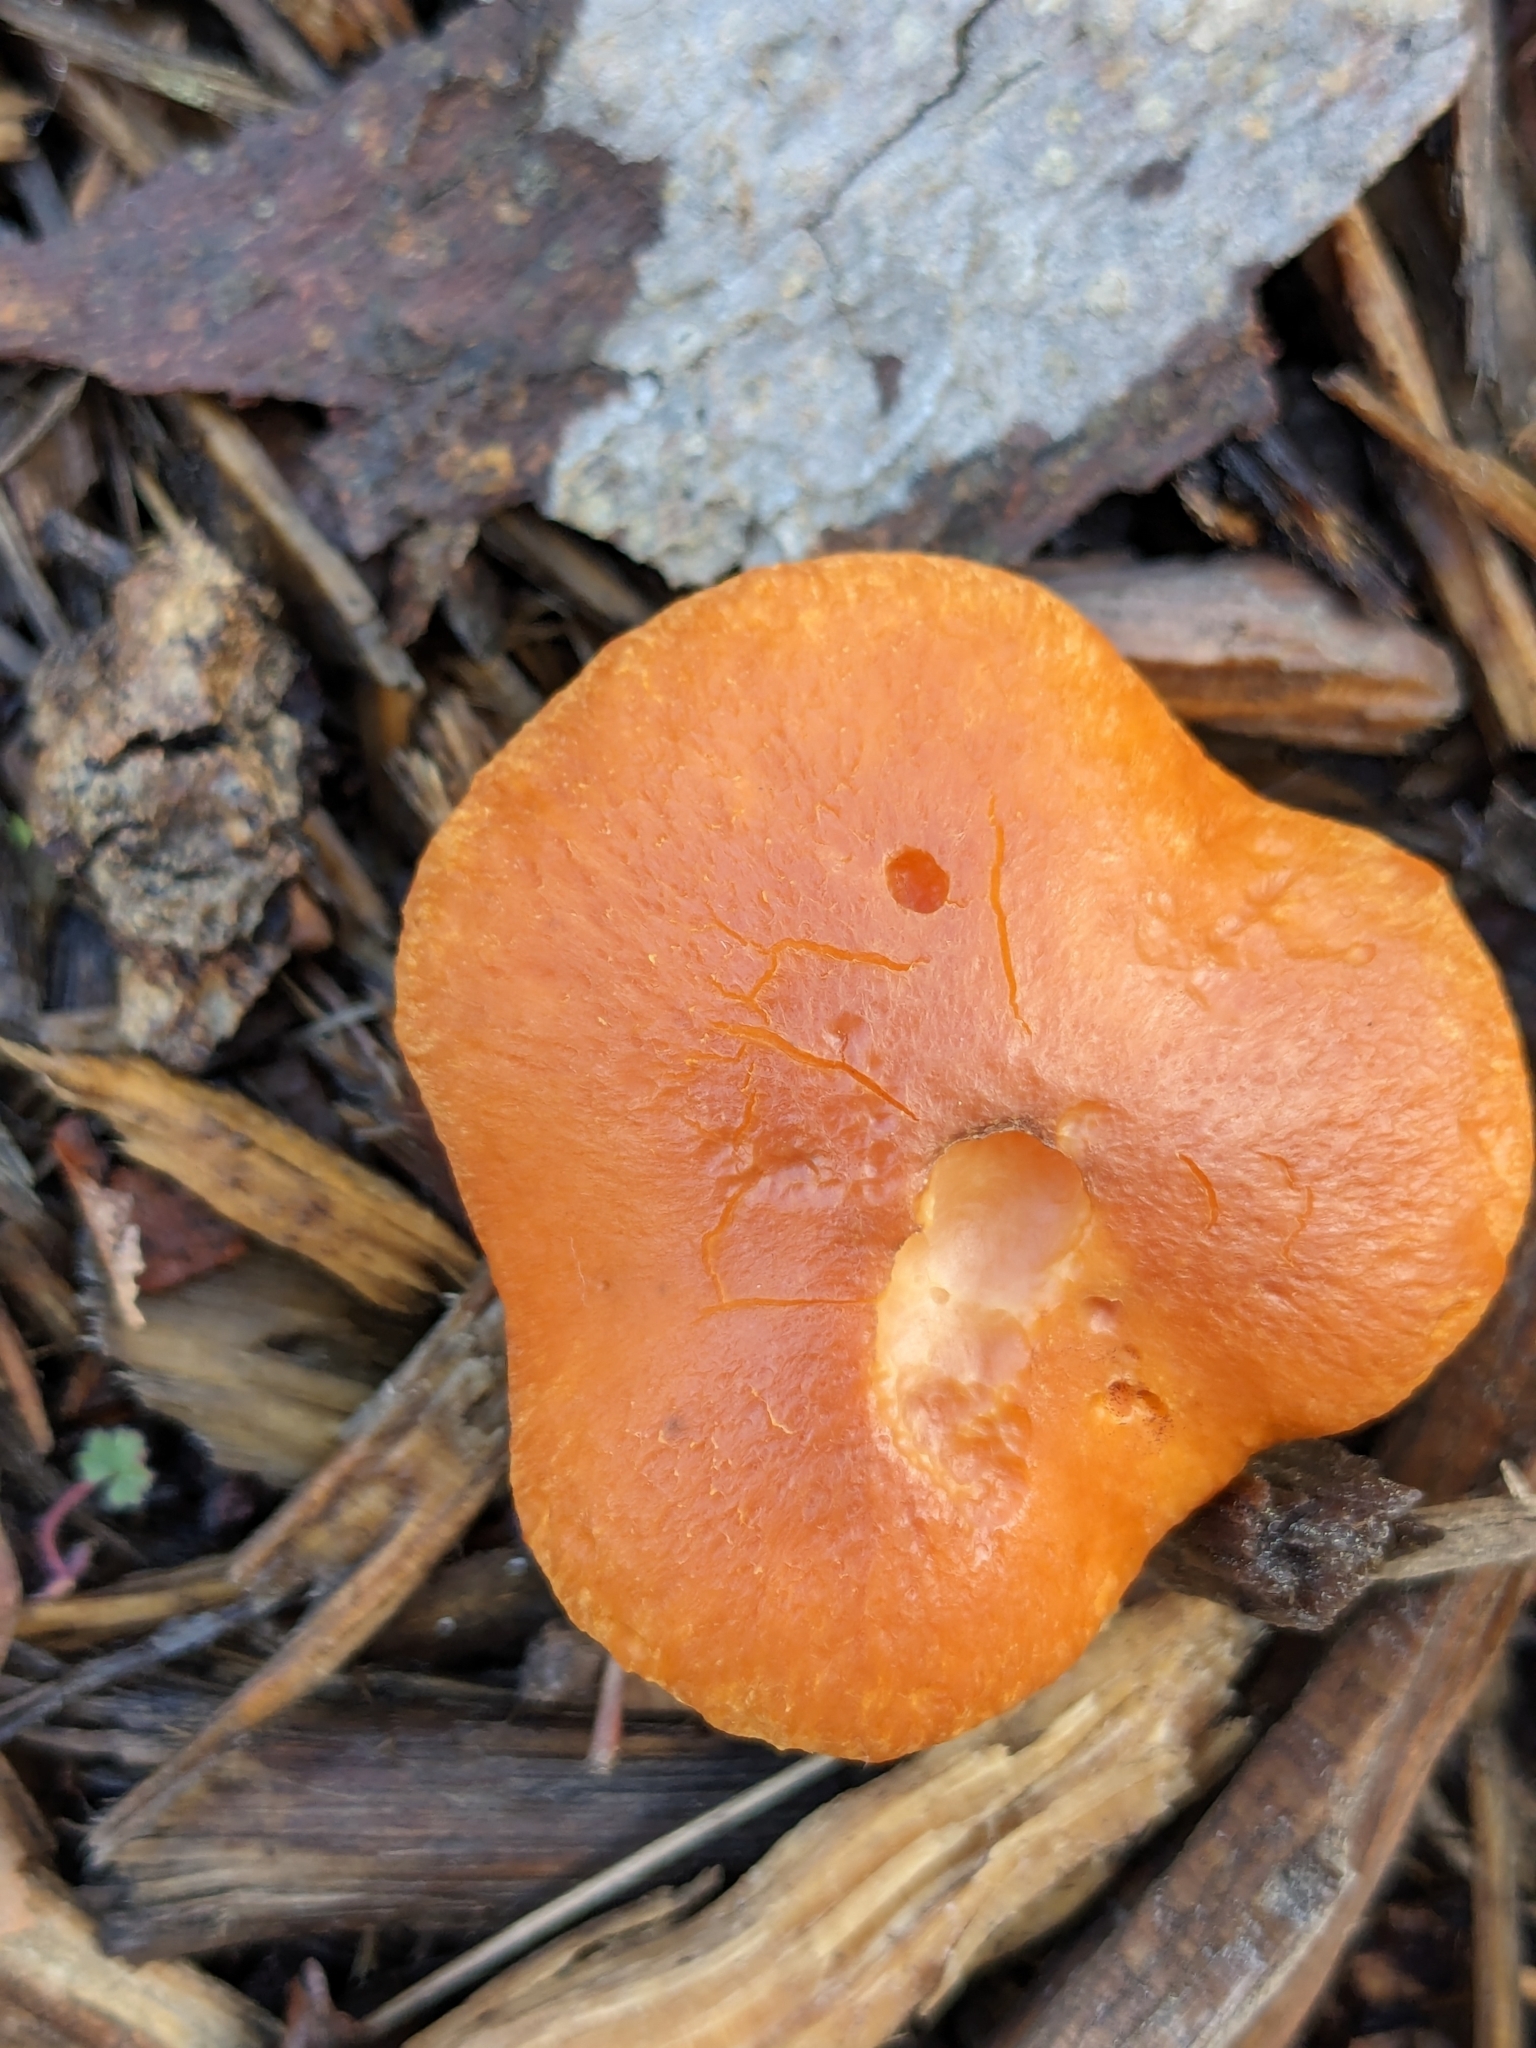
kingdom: Fungi
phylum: Basidiomycota
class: Agaricomycetes
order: Agaricales
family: Hymenogastraceae
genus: Gymnopilus
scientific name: Gymnopilus aurantiophyllus
